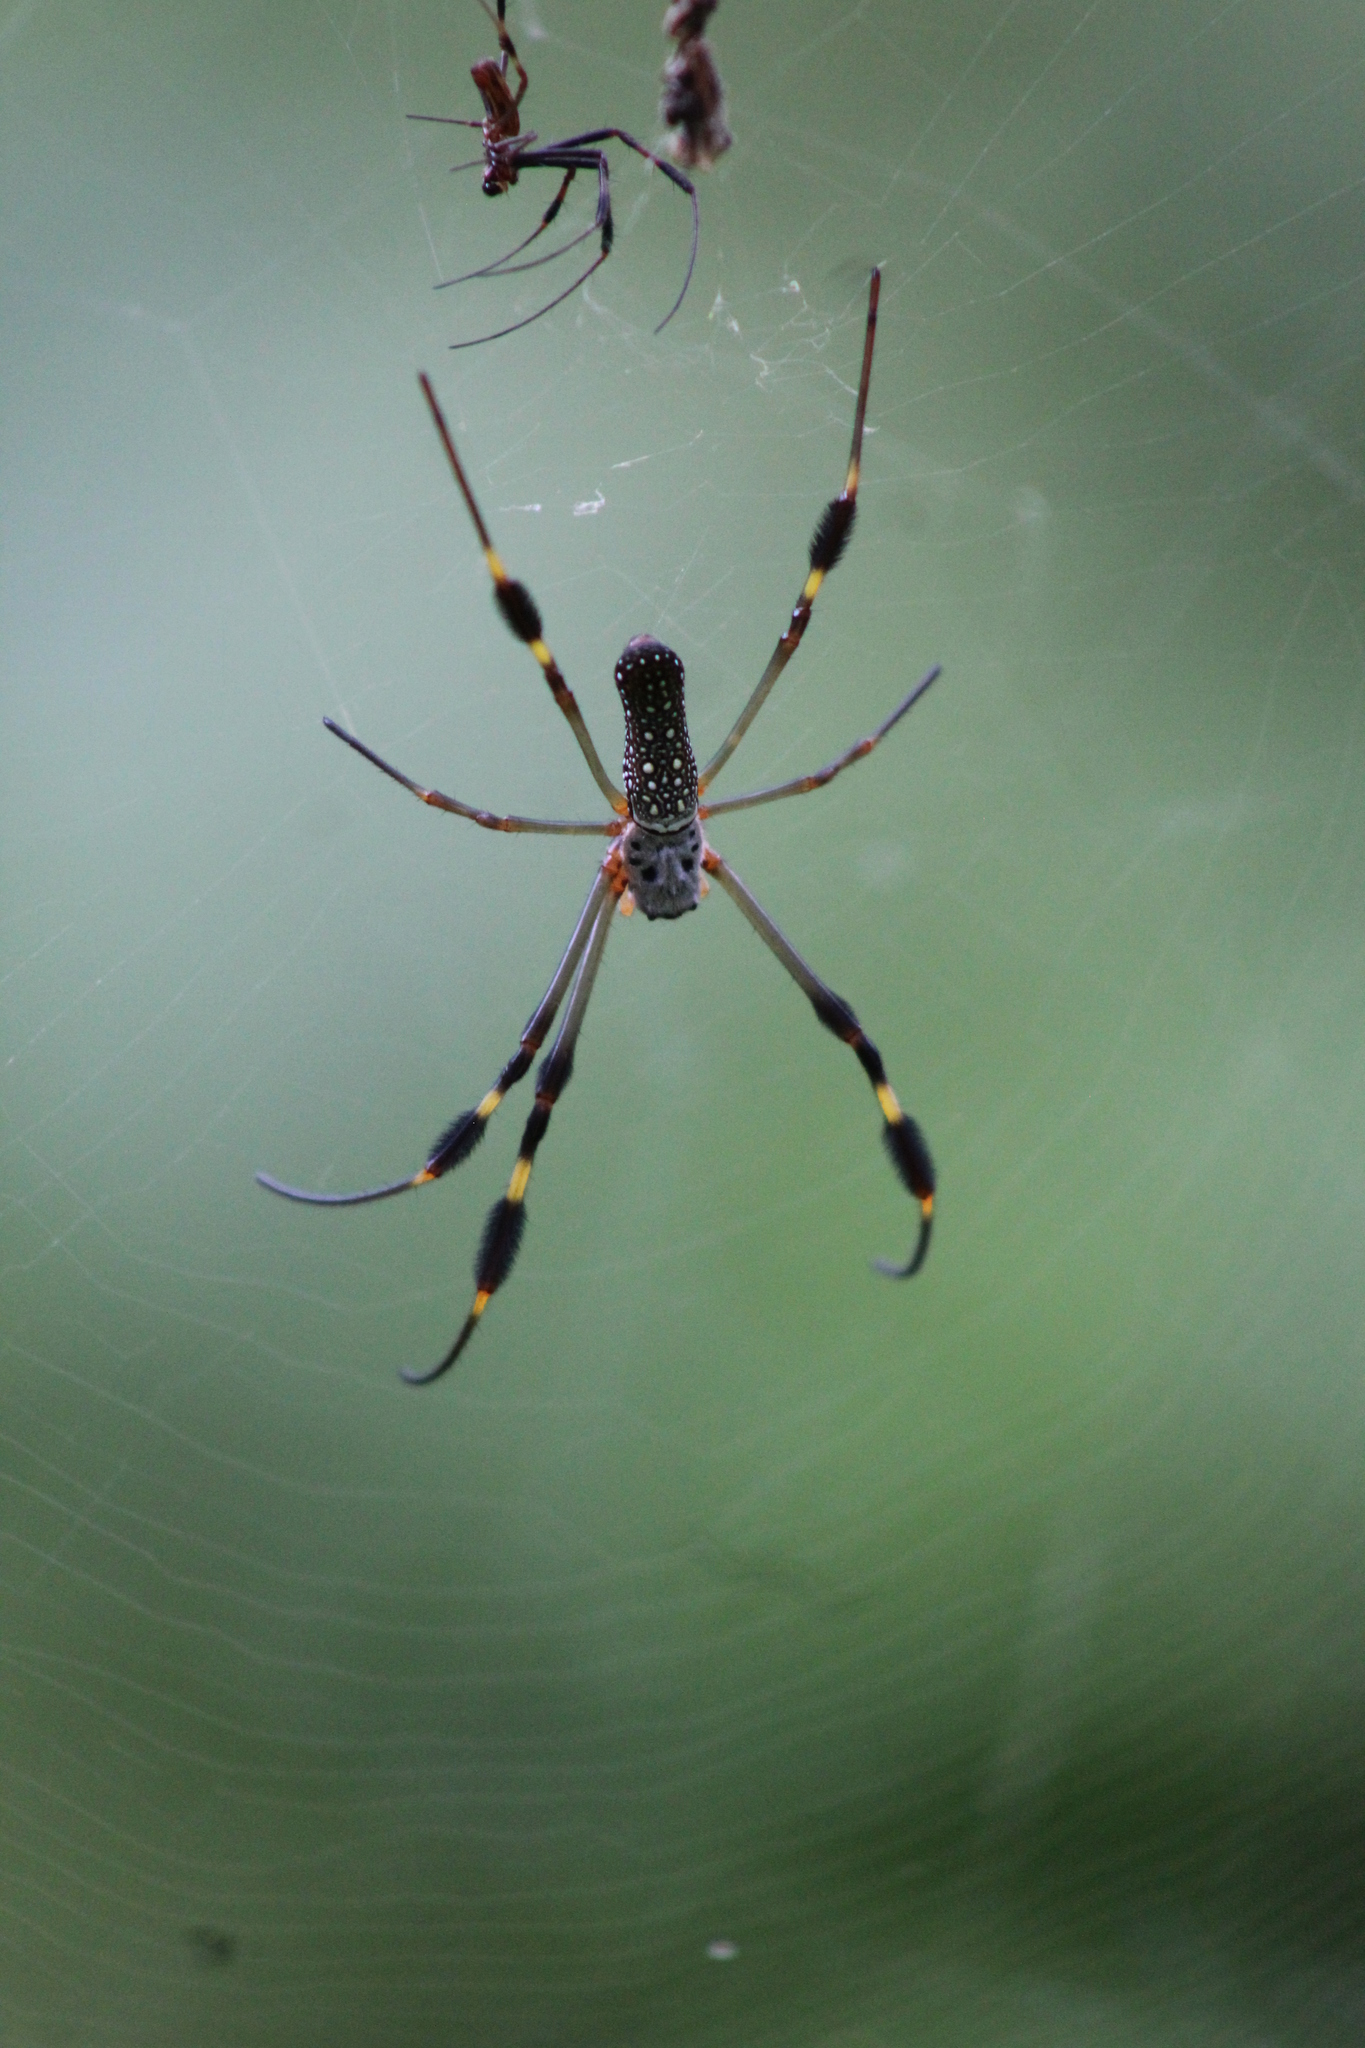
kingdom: Animalia
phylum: Arthropoda
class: Arachnida
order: Araneae
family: Araneidae
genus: Trichonephila
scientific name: Trichonephila clavipes
